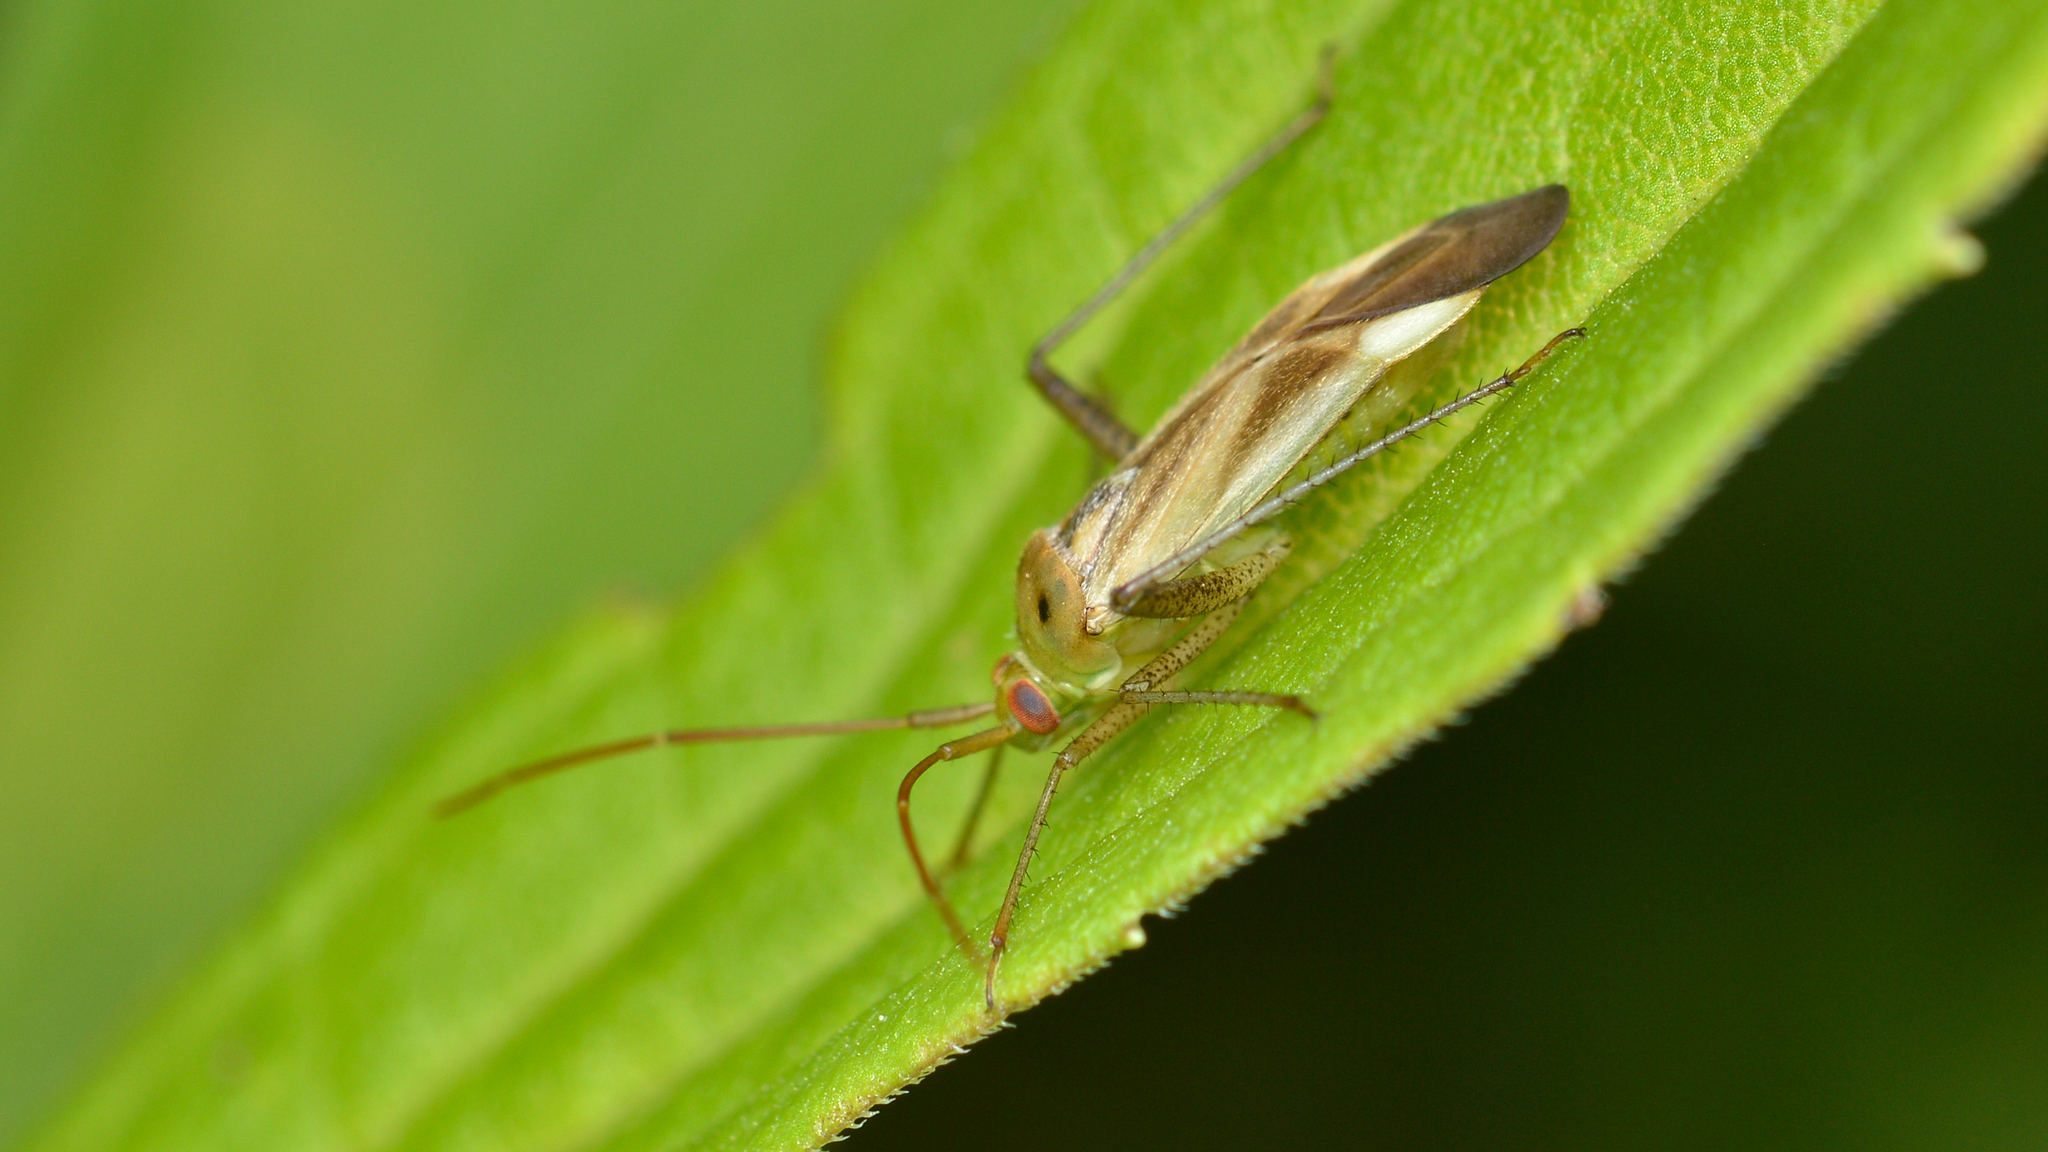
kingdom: Animalia
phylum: Arthropoda
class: Insecta
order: Hemiptera
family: Miridae
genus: Adelphocoris
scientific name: Adelphocoris lineolatus
